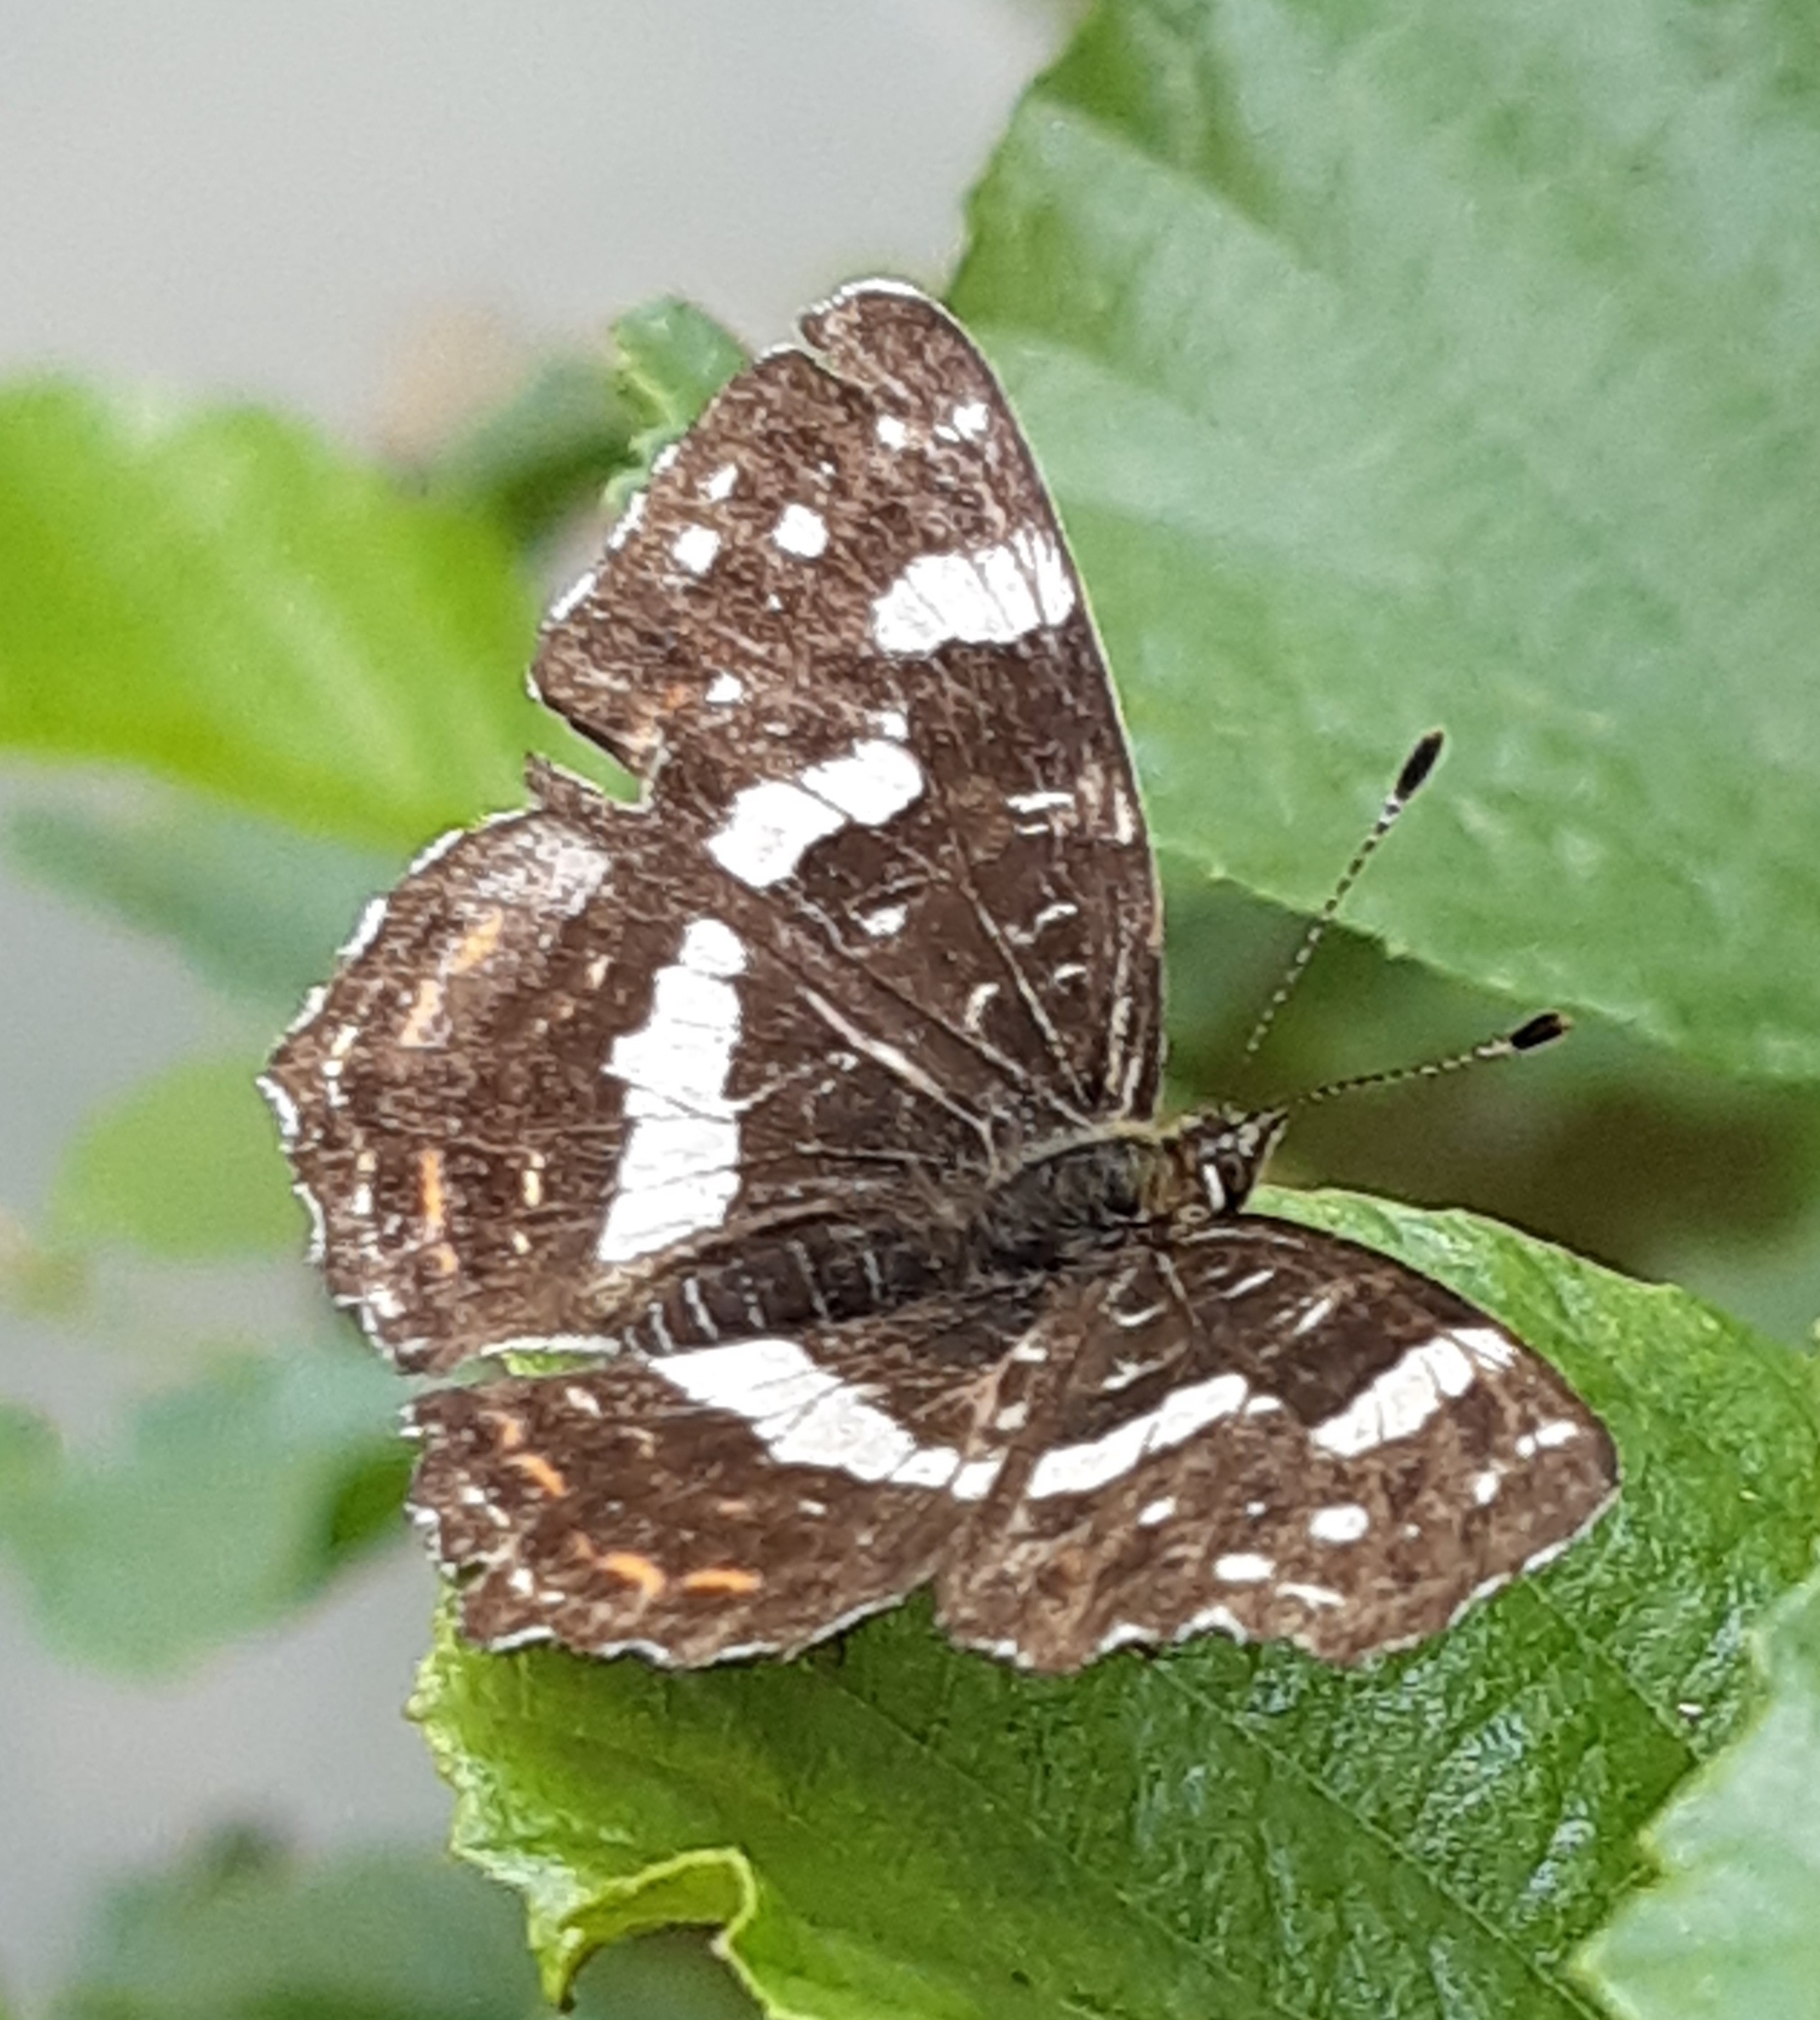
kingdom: Animalia
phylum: Arthropoda
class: Insecta
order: Lepidoptera
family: Nymphalidae
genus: Araschnia
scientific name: Araschnia levana
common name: Map butterfly
